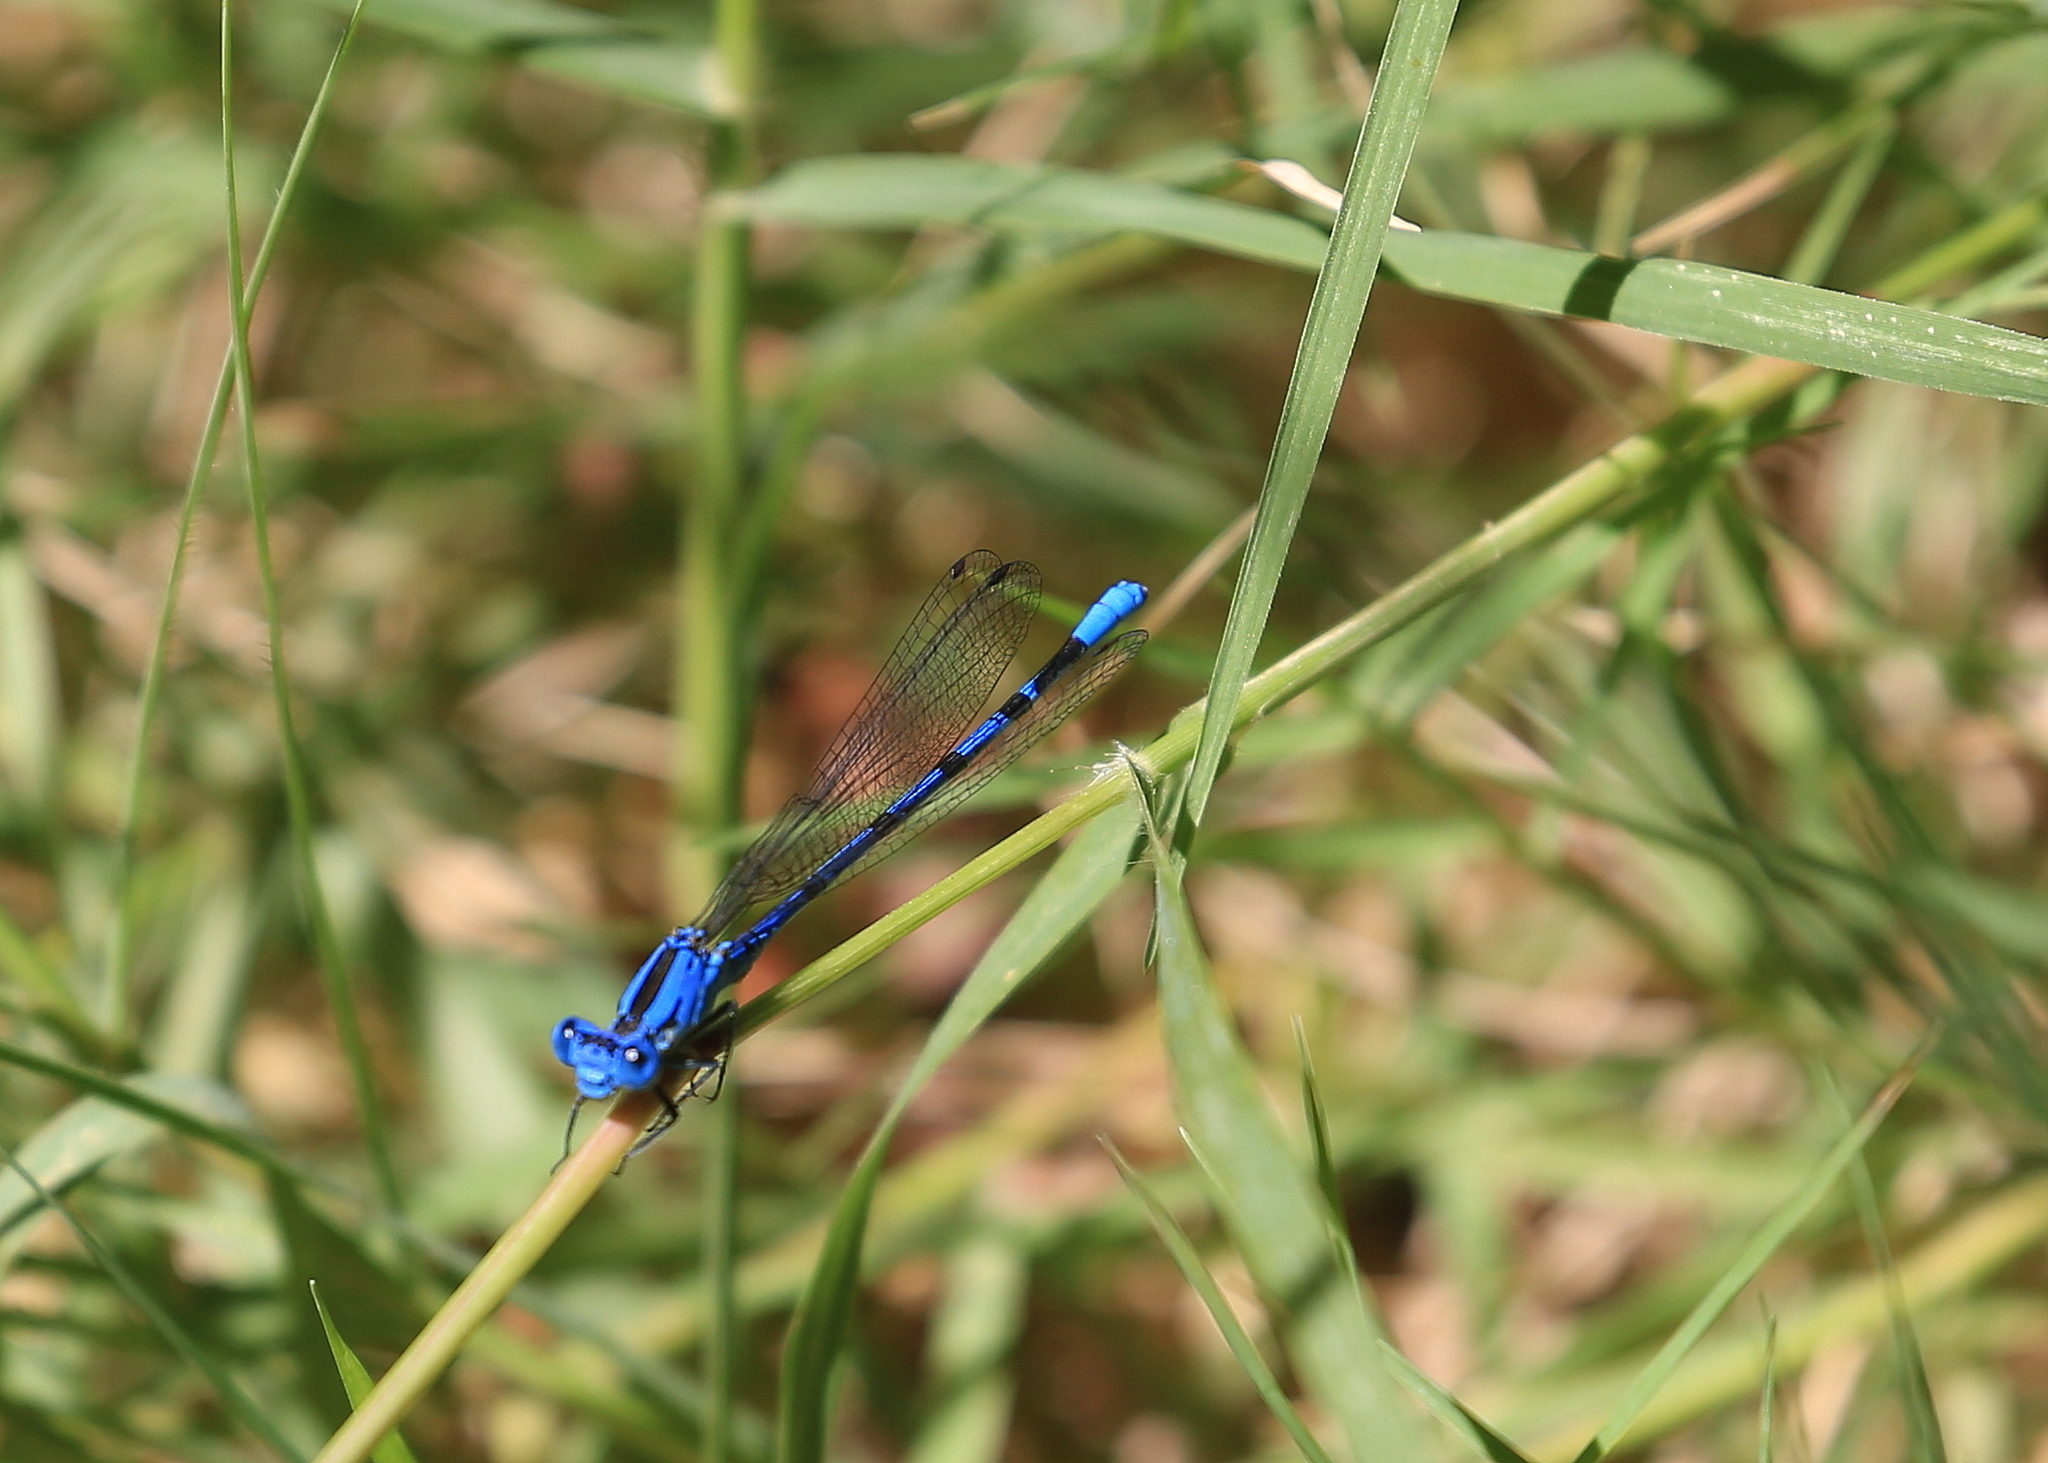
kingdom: Animalia
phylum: Arthropoda
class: Insecta
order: Odonata
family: Coenagrionidae
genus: Argia
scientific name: Argia vivida
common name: Vivid dancer
